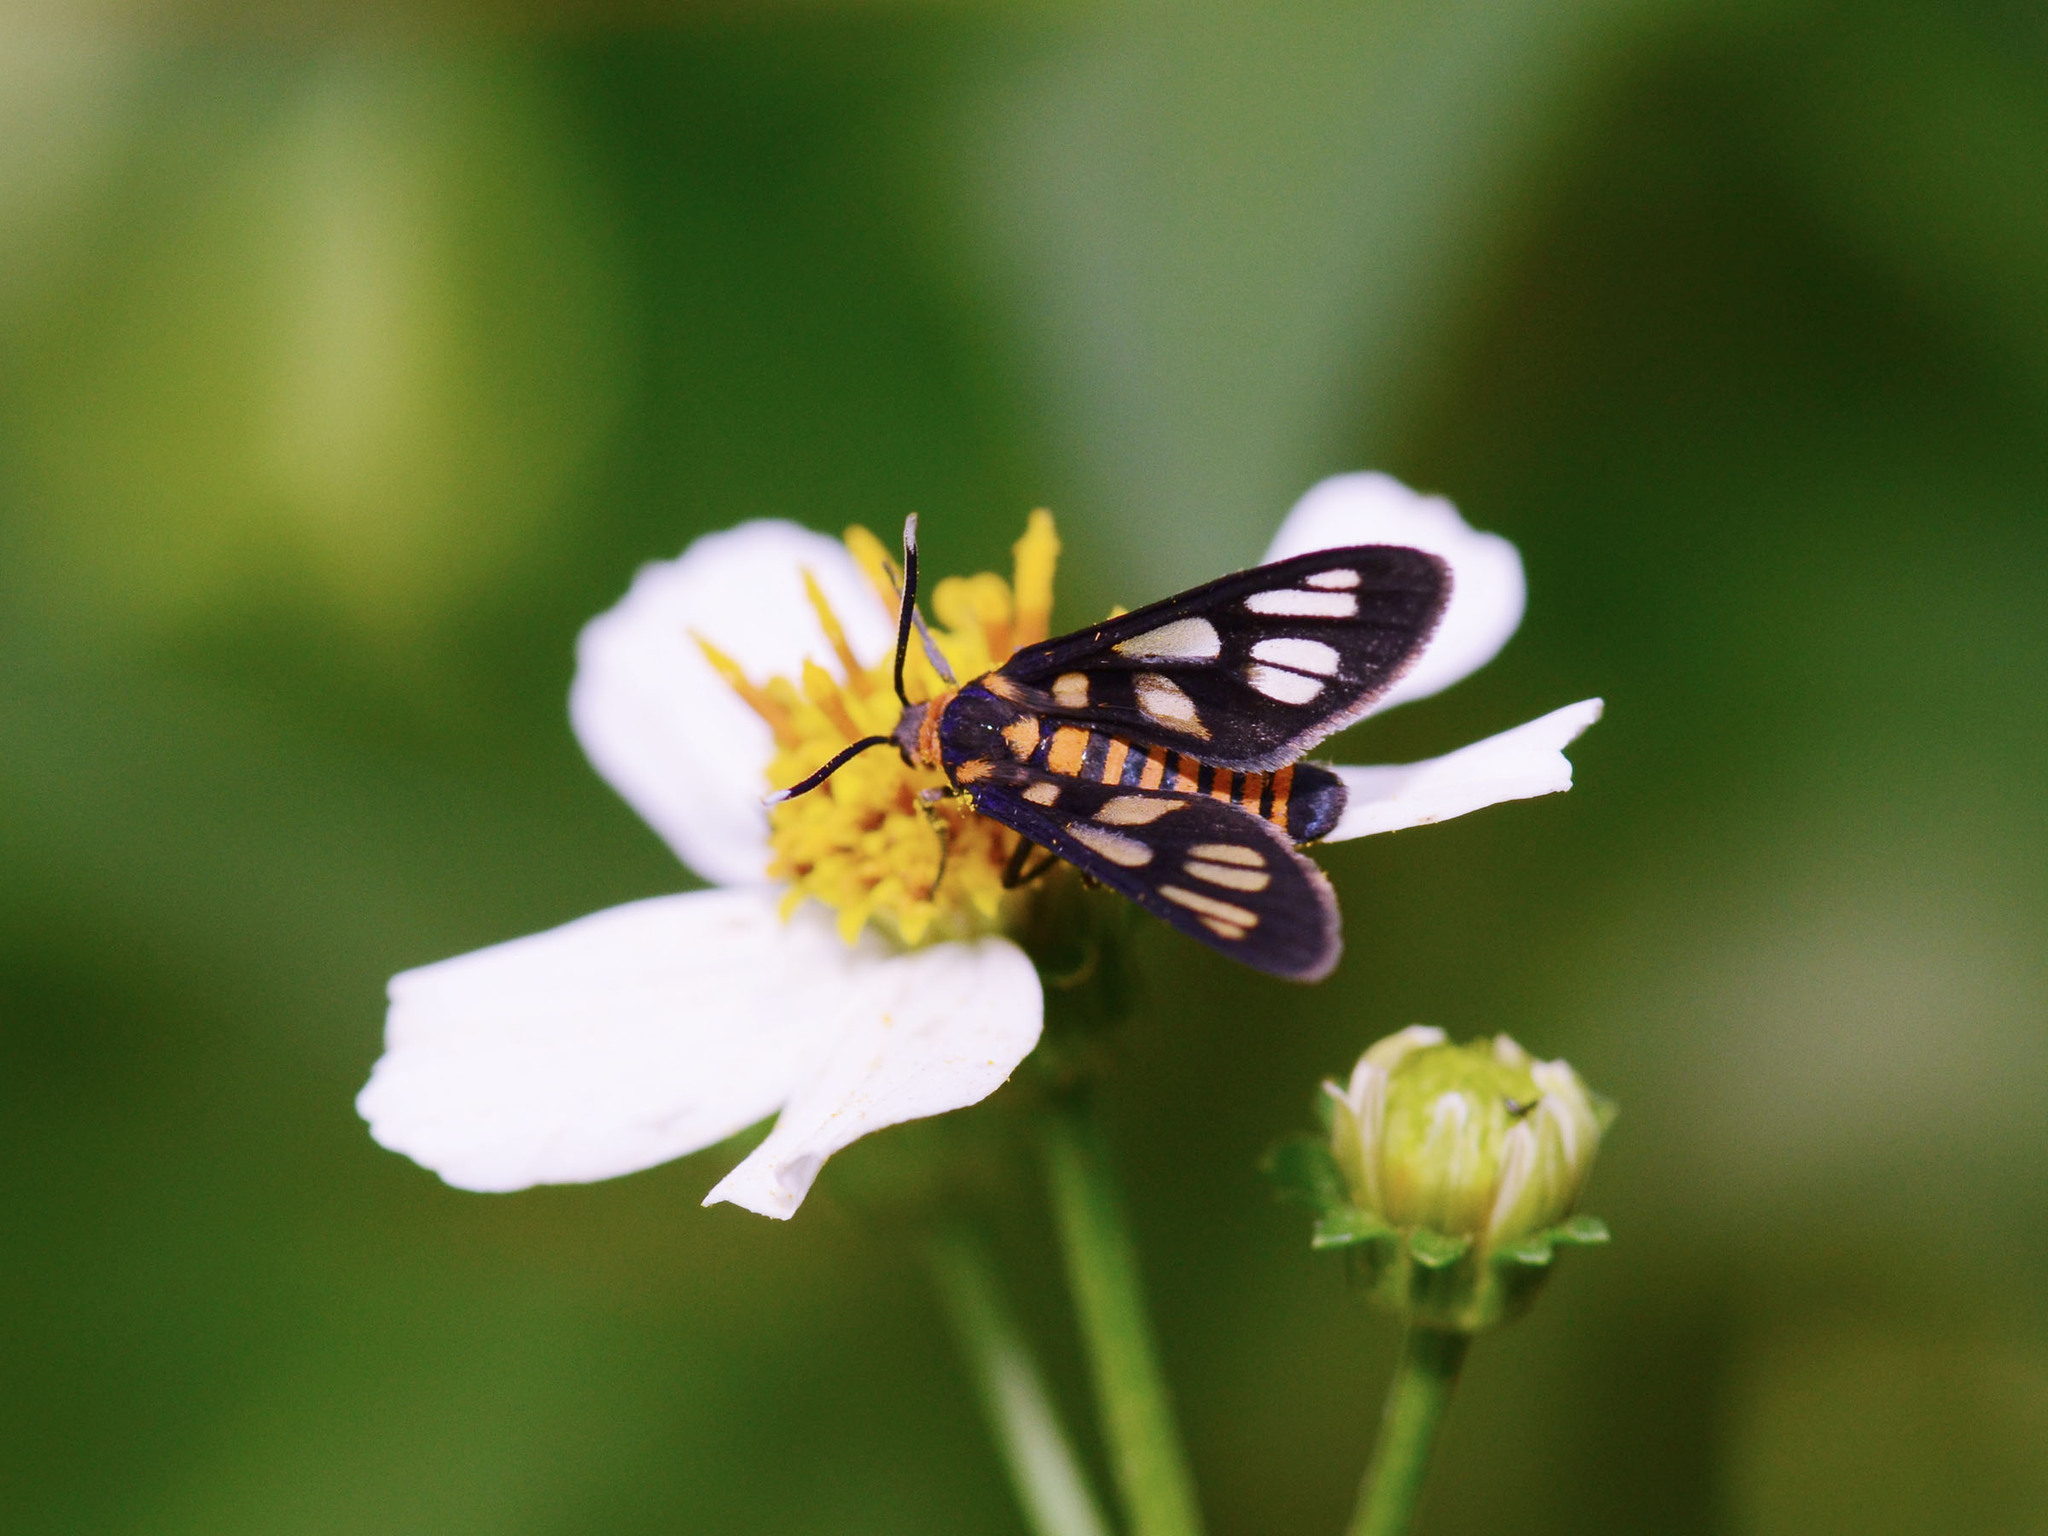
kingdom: Animalia
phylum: Arthropoda
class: Insecta
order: Lepidoptera
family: Erebidae
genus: Amata
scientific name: Amata huebneri
